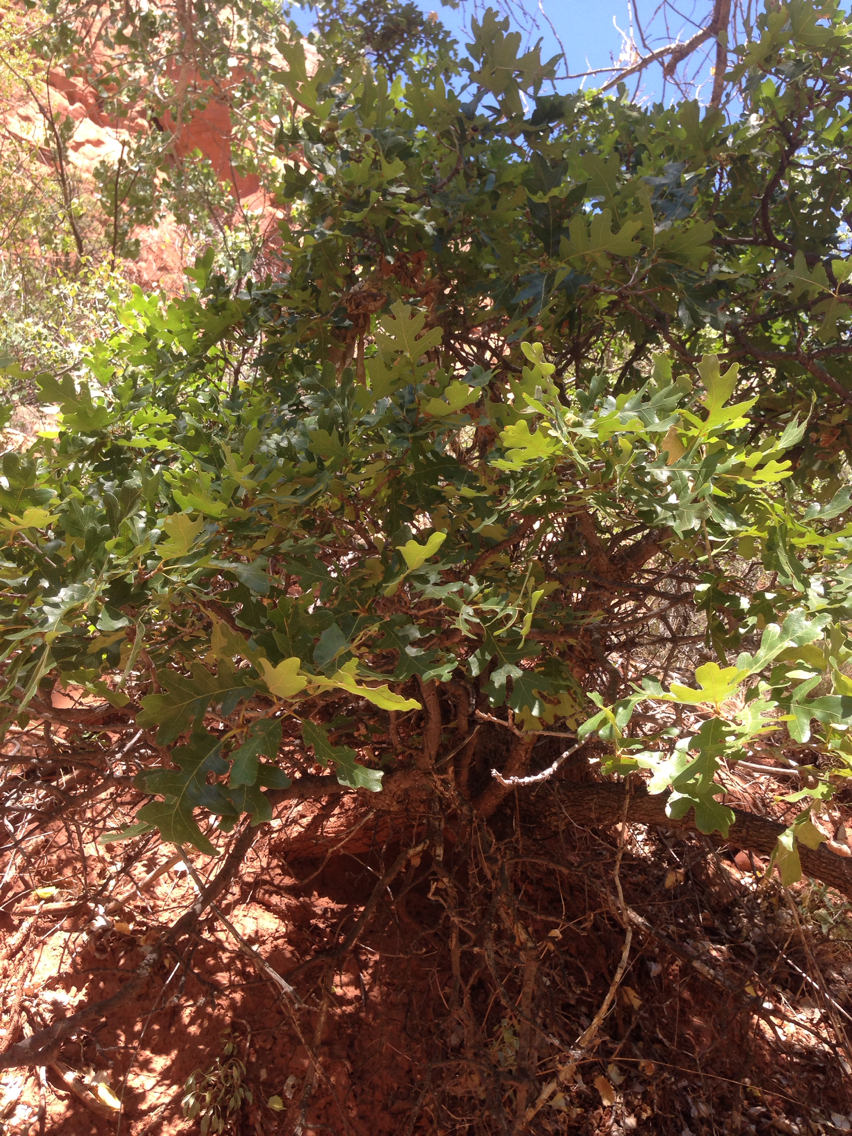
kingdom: Plantae
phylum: Tracheophyta
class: Magnoliopsida
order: Fagales
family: Fagaceae
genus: Quercus
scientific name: Quercus gambelii
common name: Gambel oak
